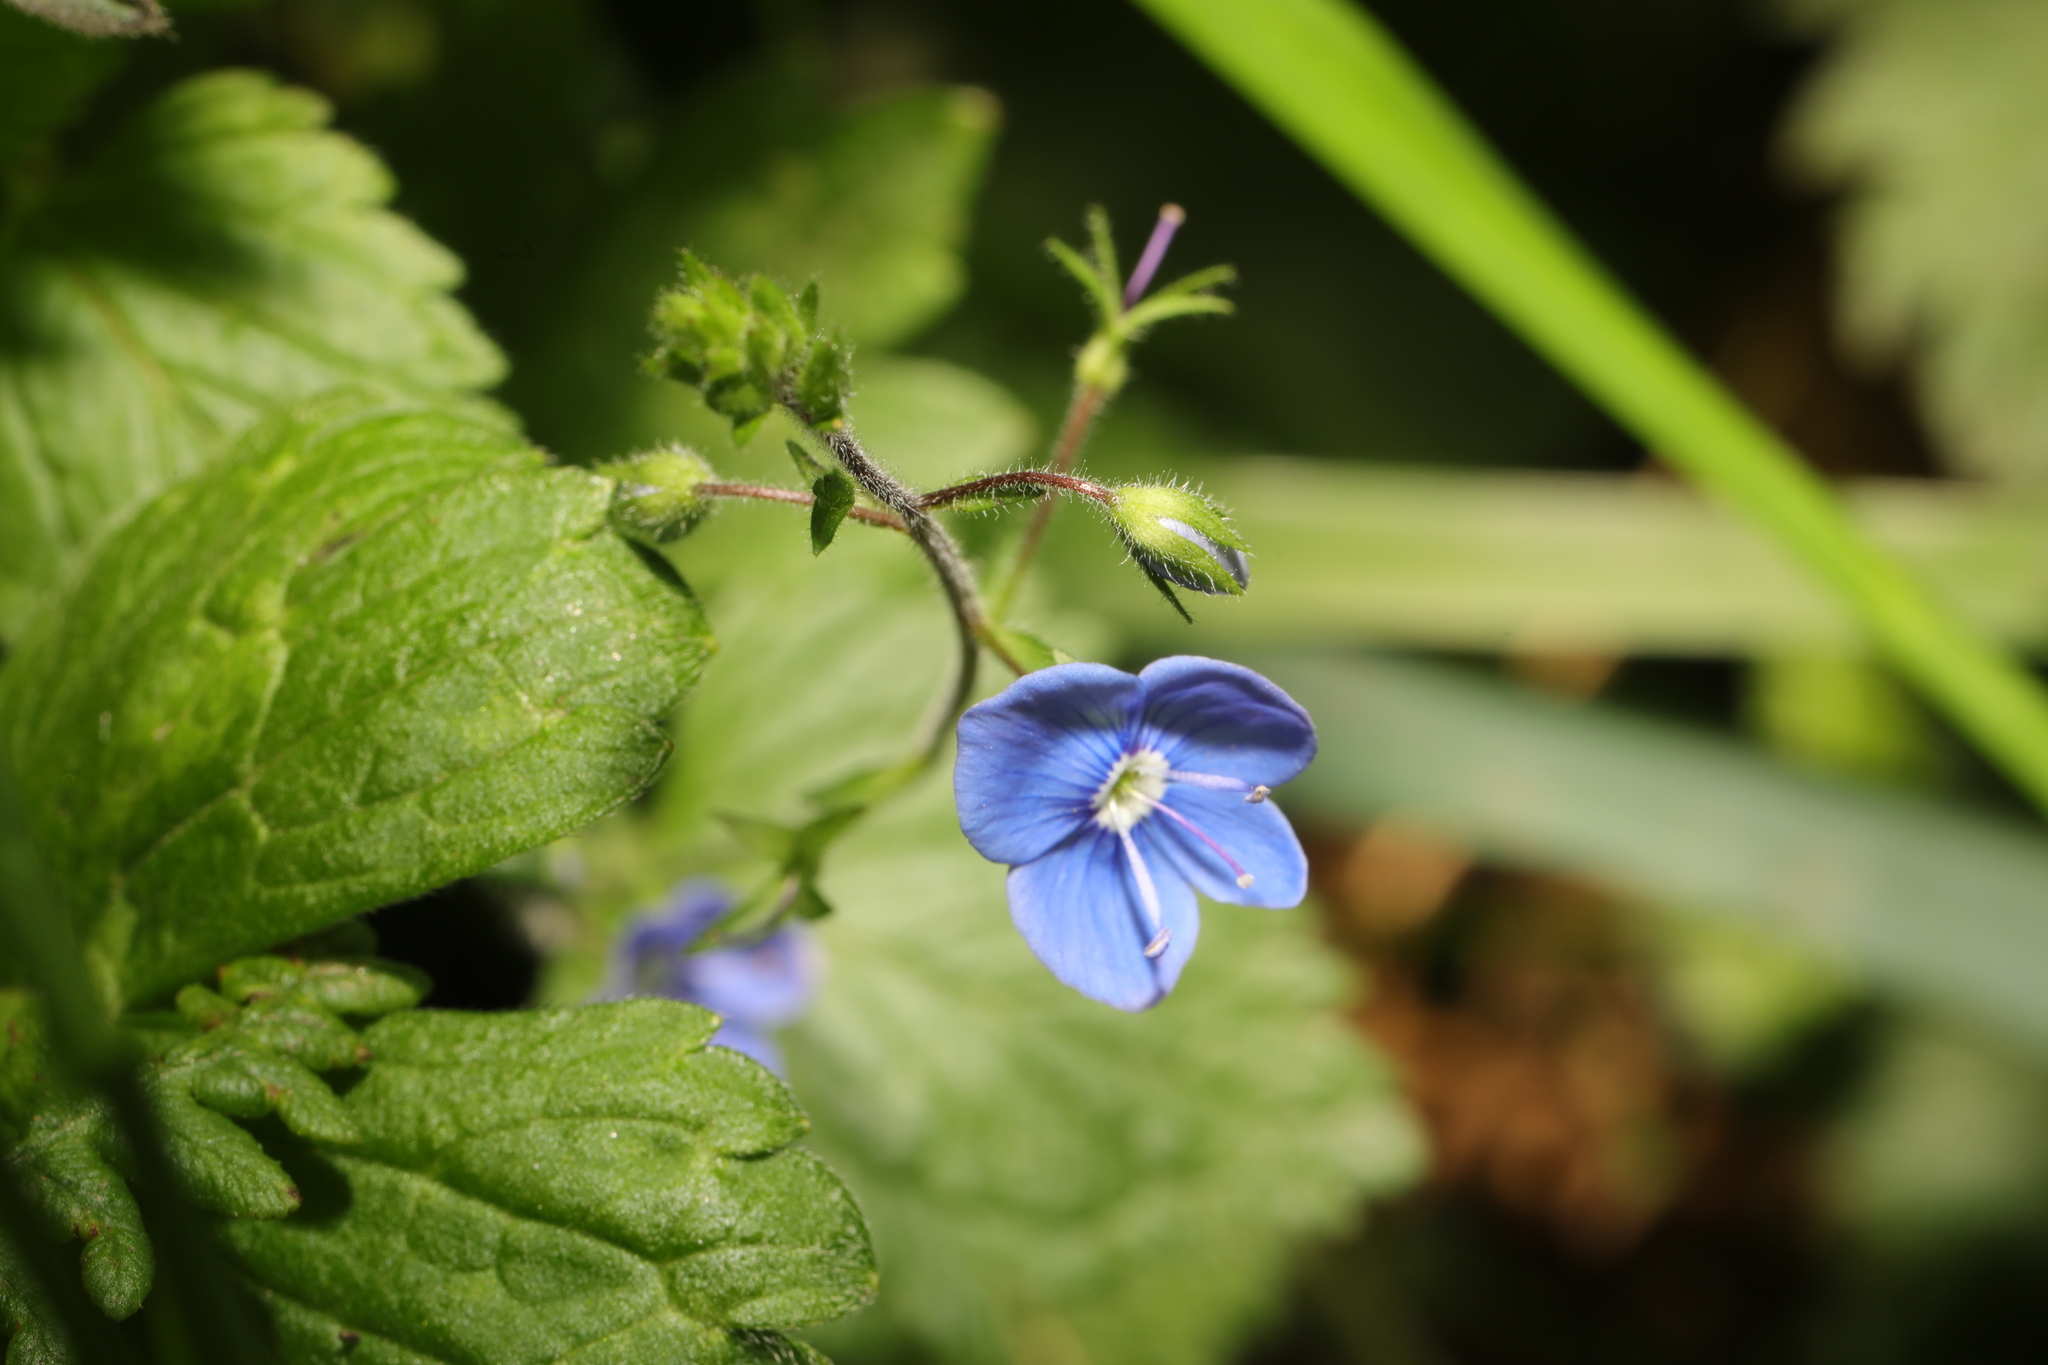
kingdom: Plantae
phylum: Tracheophyta
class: Magnoliopsida
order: Lamiales
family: Plantaginaceae
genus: Veronica
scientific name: Veronica chamaedrys
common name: Germander speedwell
